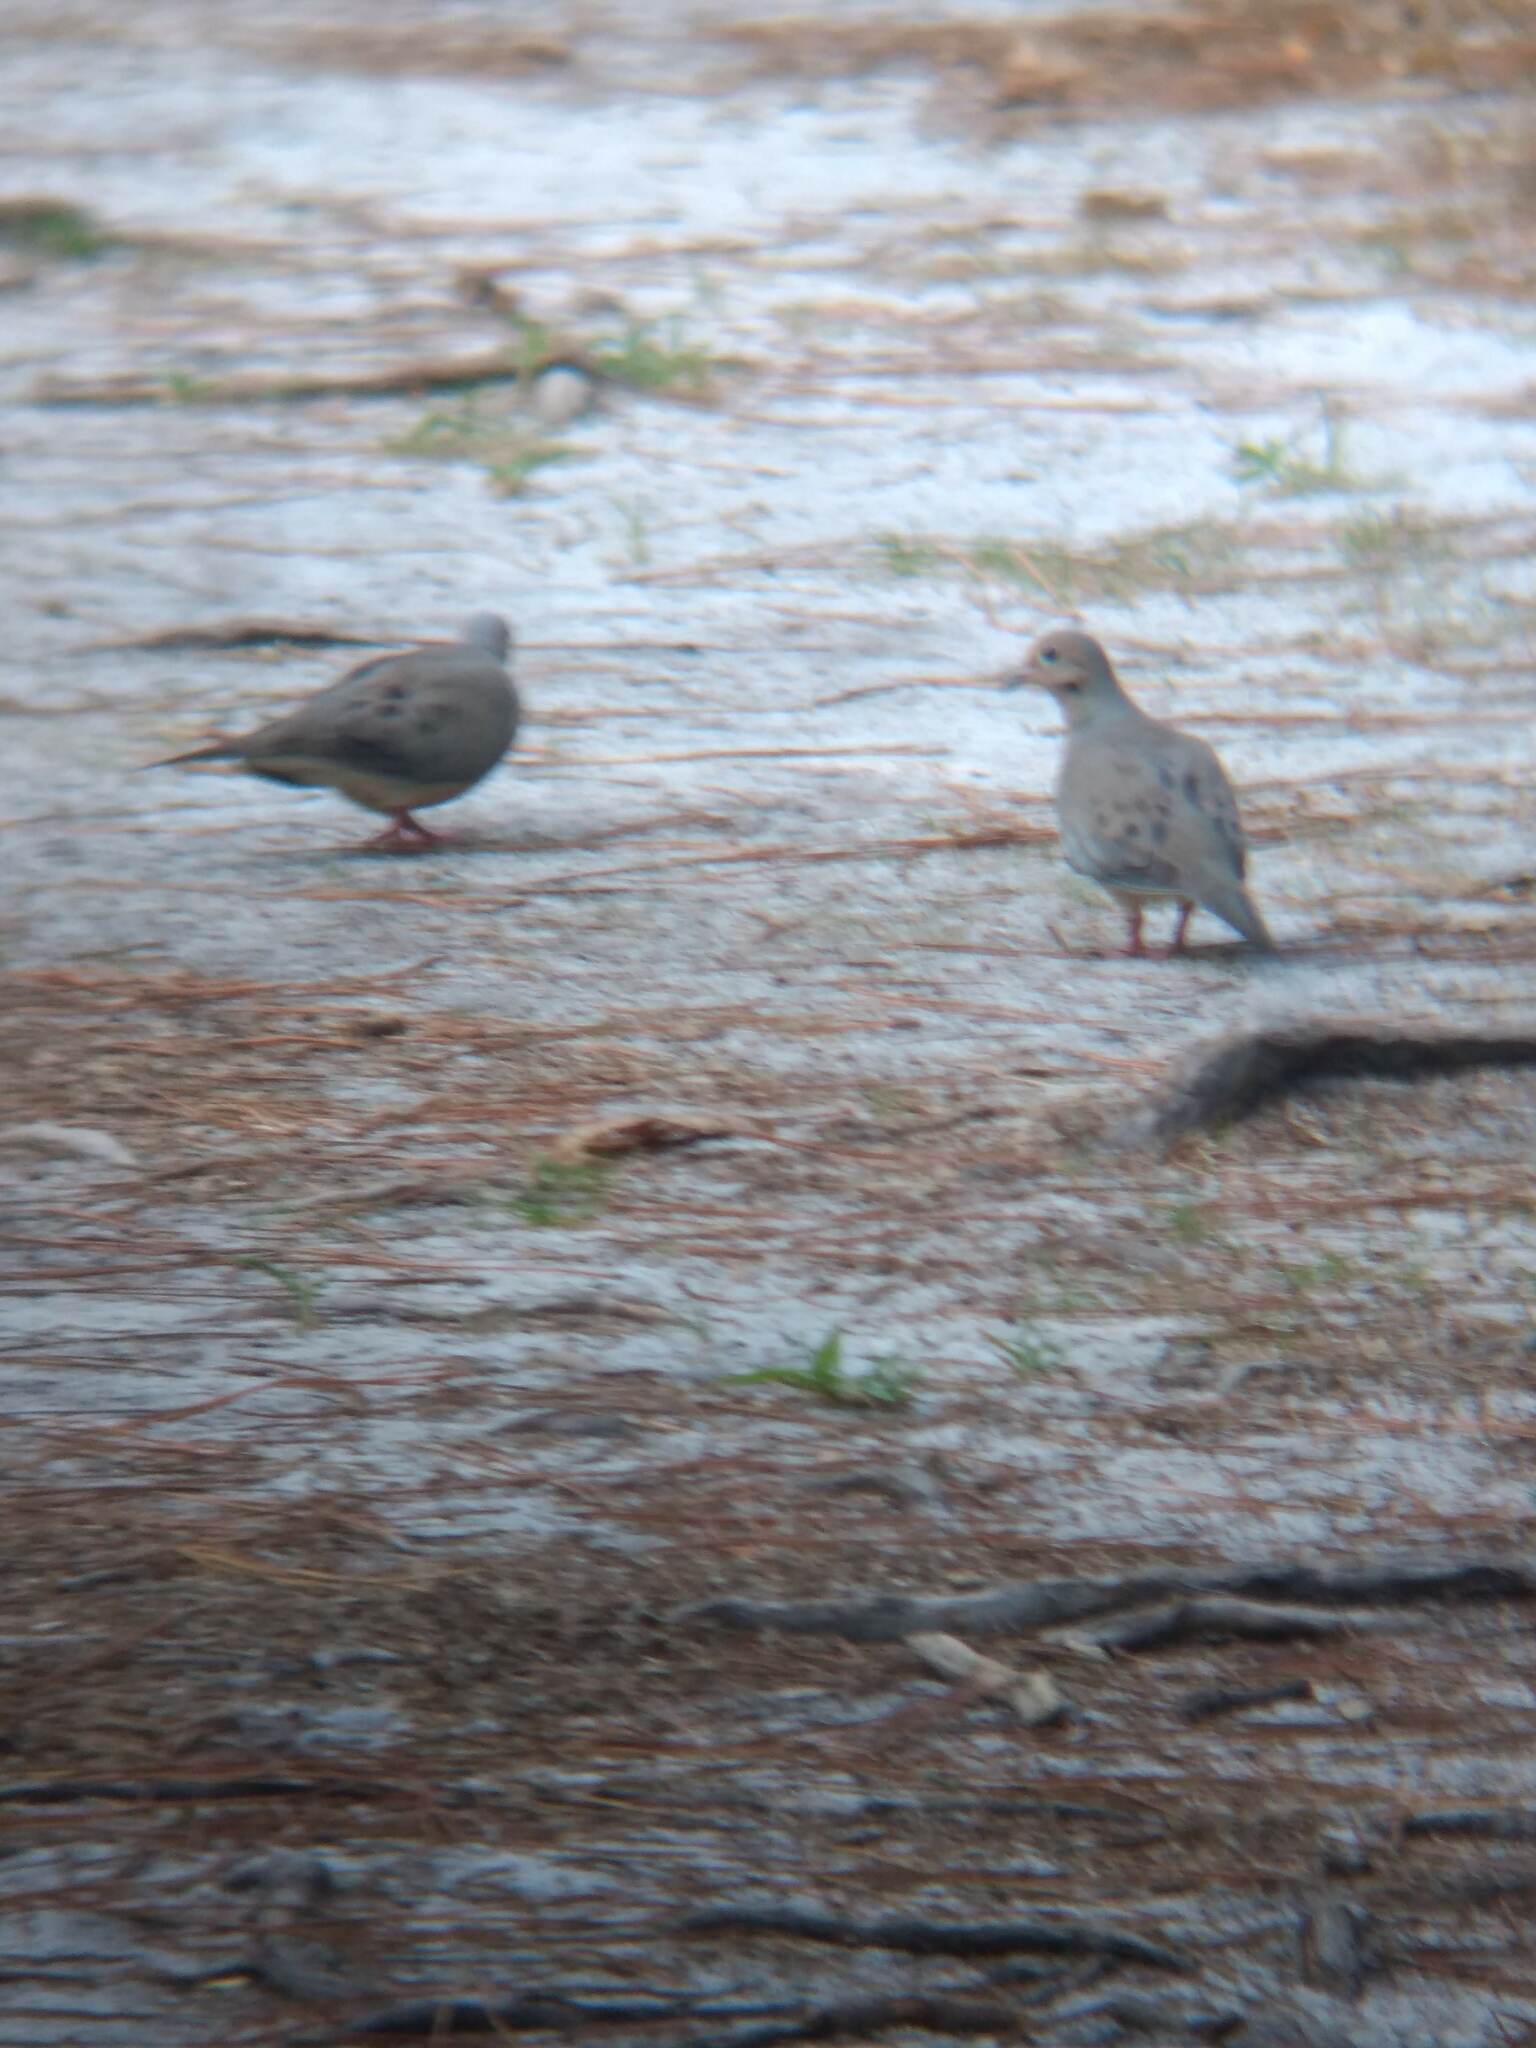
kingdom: Animalia
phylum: Chordata
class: Aves
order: Columbiformes
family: Columbidae
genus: Zenaida
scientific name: Zenaida macroura
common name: Mourning dove
